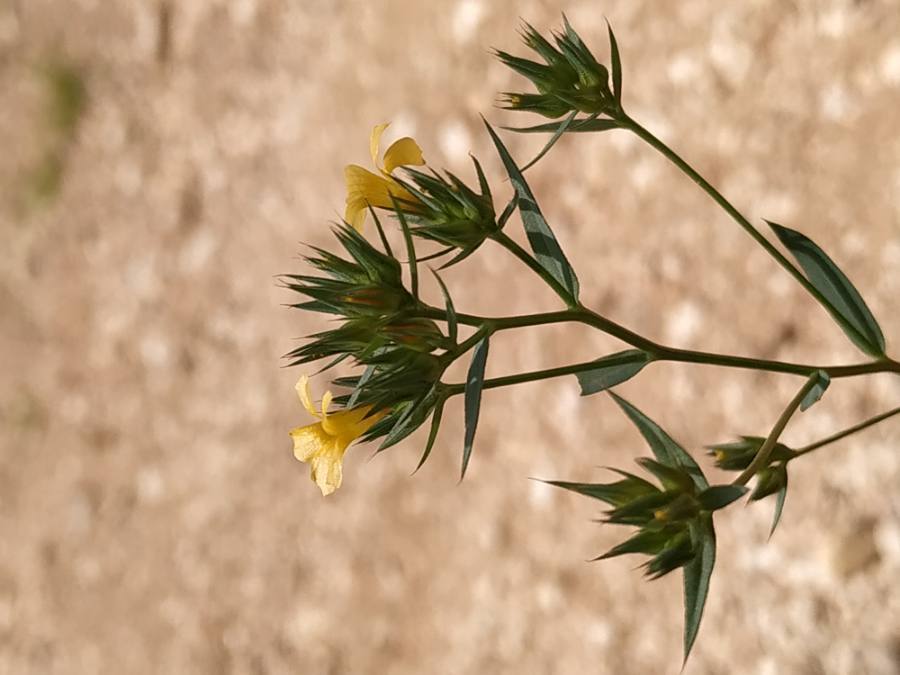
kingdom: Plantae
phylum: Tracheophyta
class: Magnoliopsida
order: Malpighiales
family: Linaceae
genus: Linum
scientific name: Linum strictum
